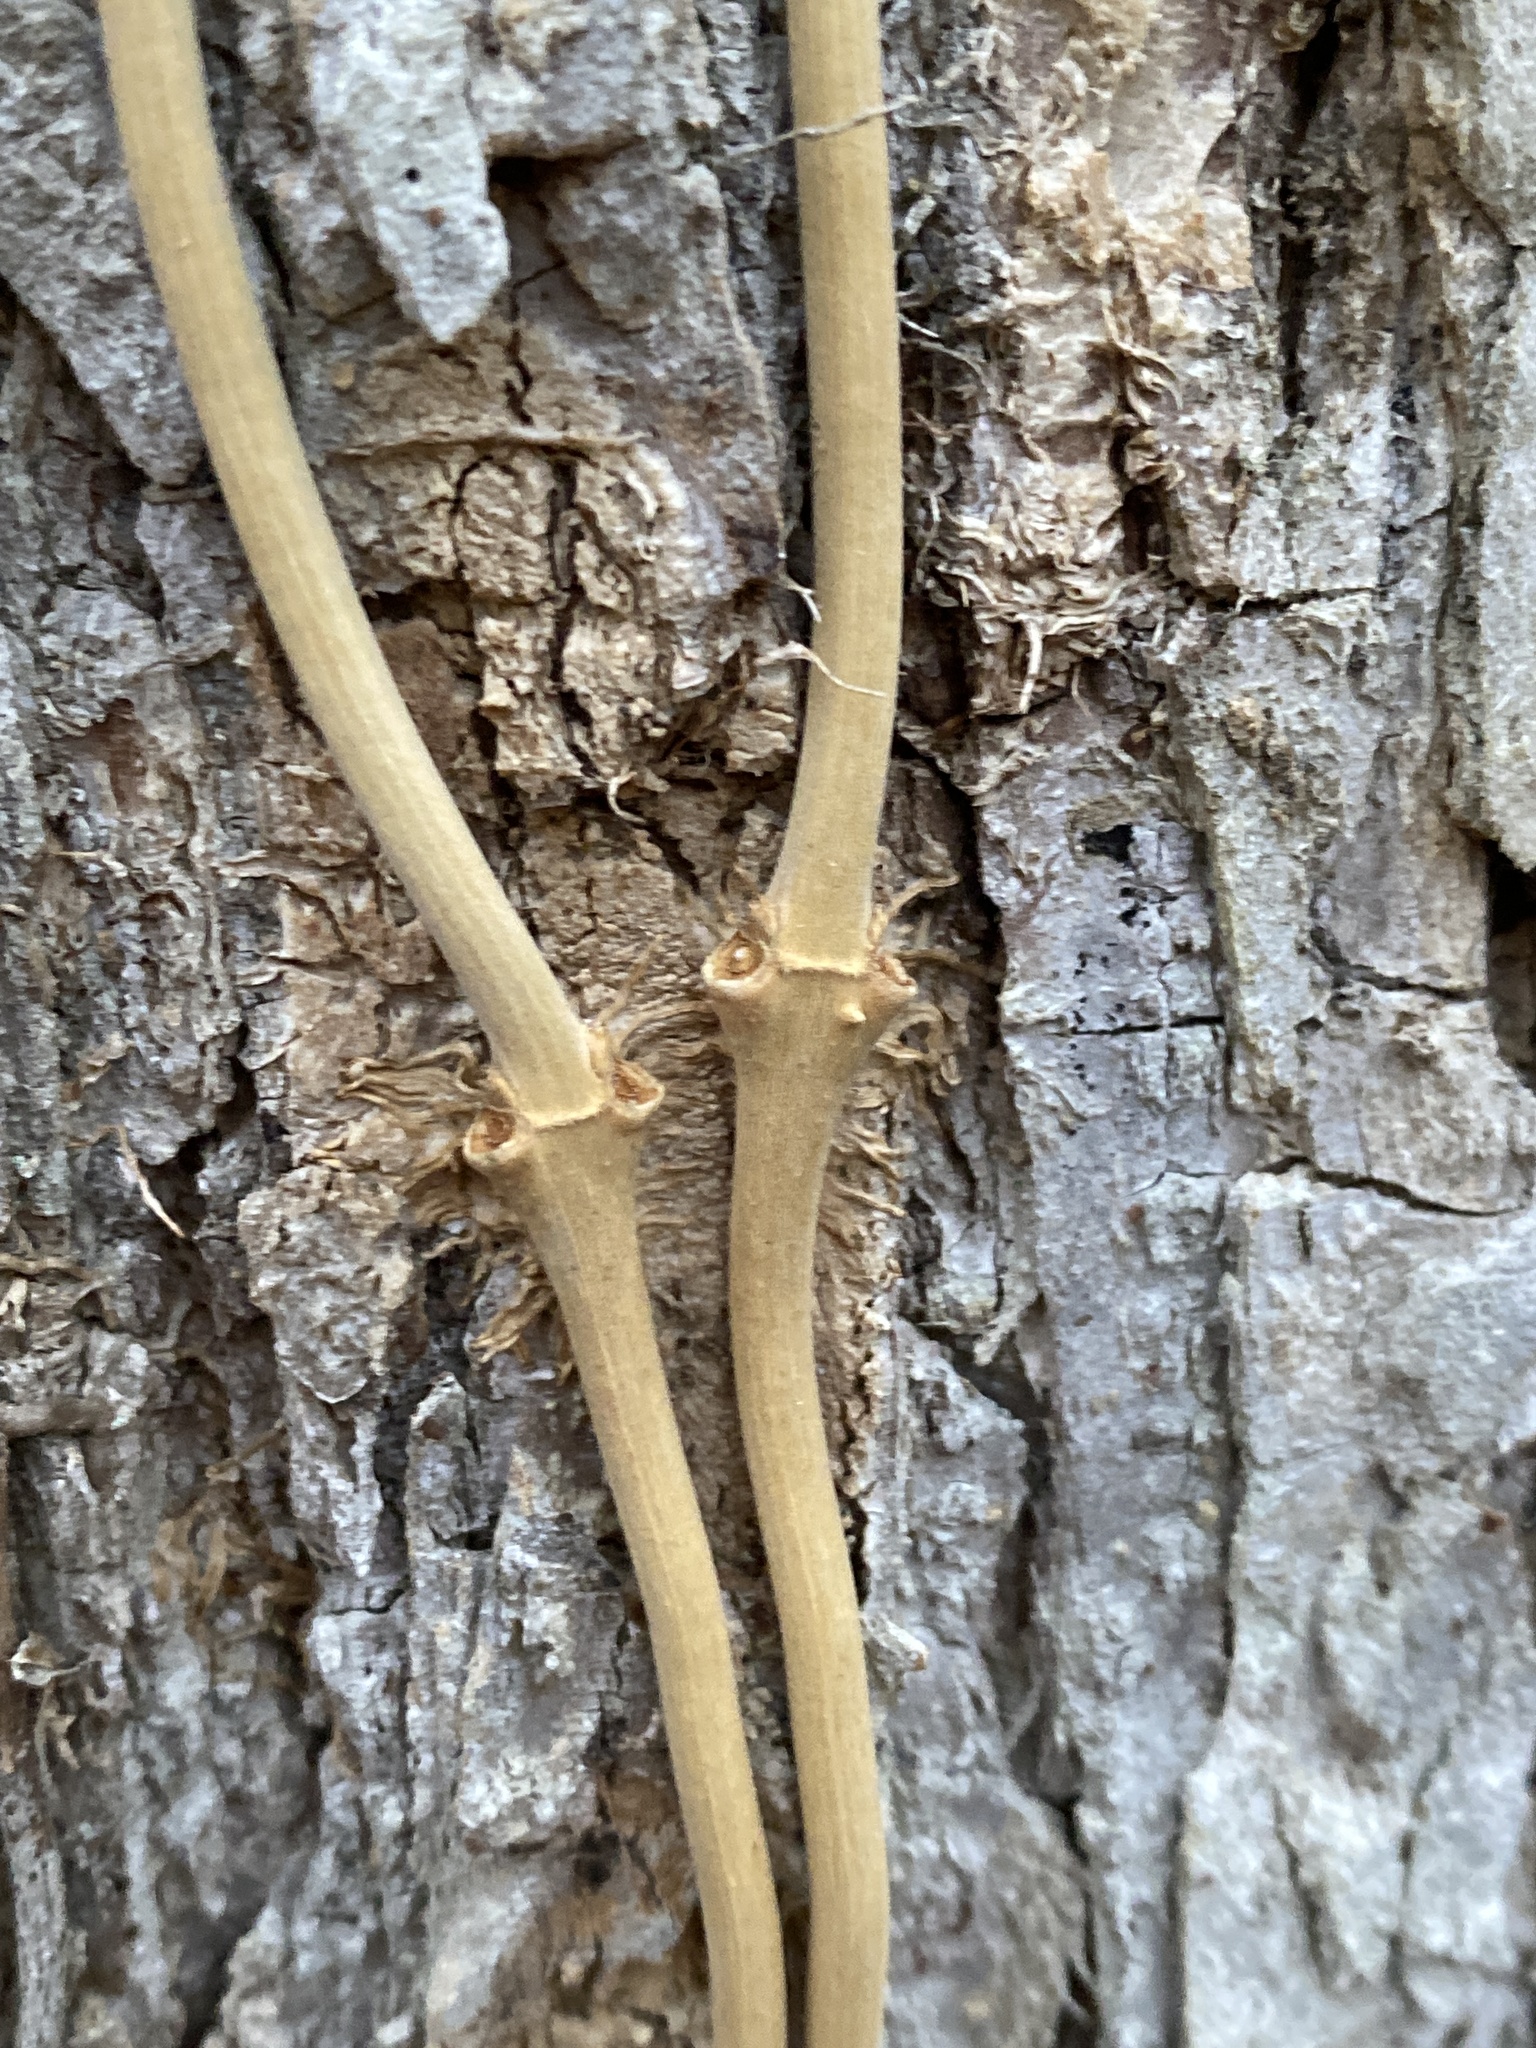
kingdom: Plantae
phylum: Tracheophyta
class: Magnoliopsida
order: Lamiales
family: Bignoniaceae
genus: Campsis
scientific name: Campsis radicans
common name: Trumpet-creeper
